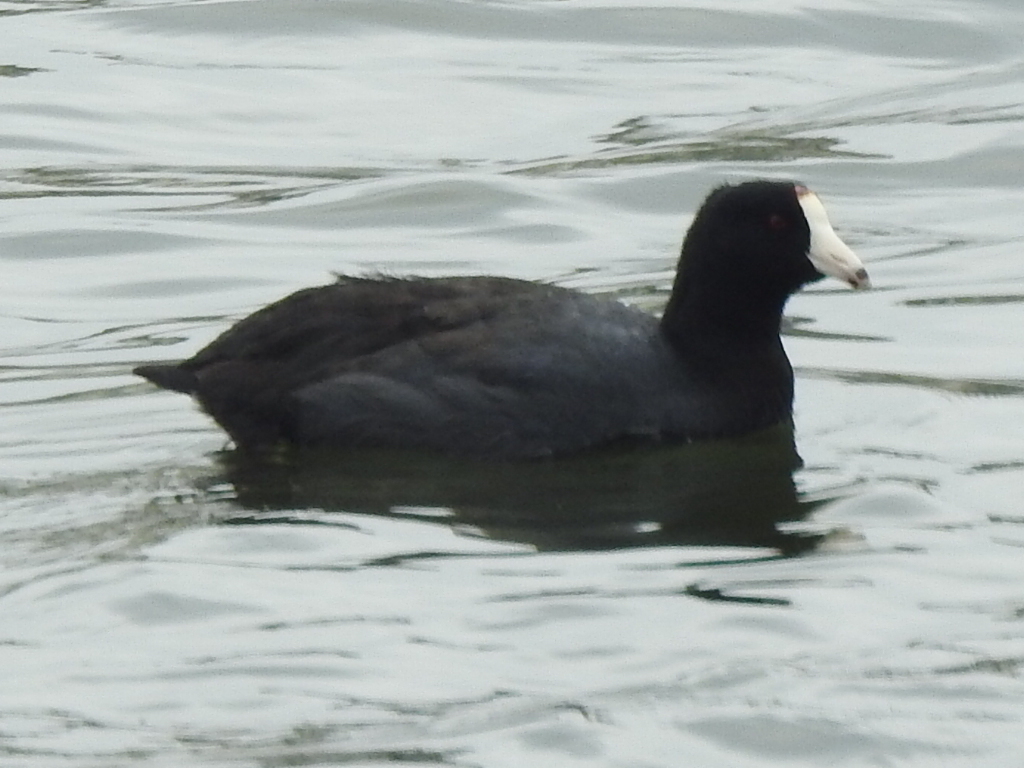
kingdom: Animalia
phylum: Chordata
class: Aves
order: Gruiformes
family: Rallidae
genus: Fulica
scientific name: Fulica americana
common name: American coot
